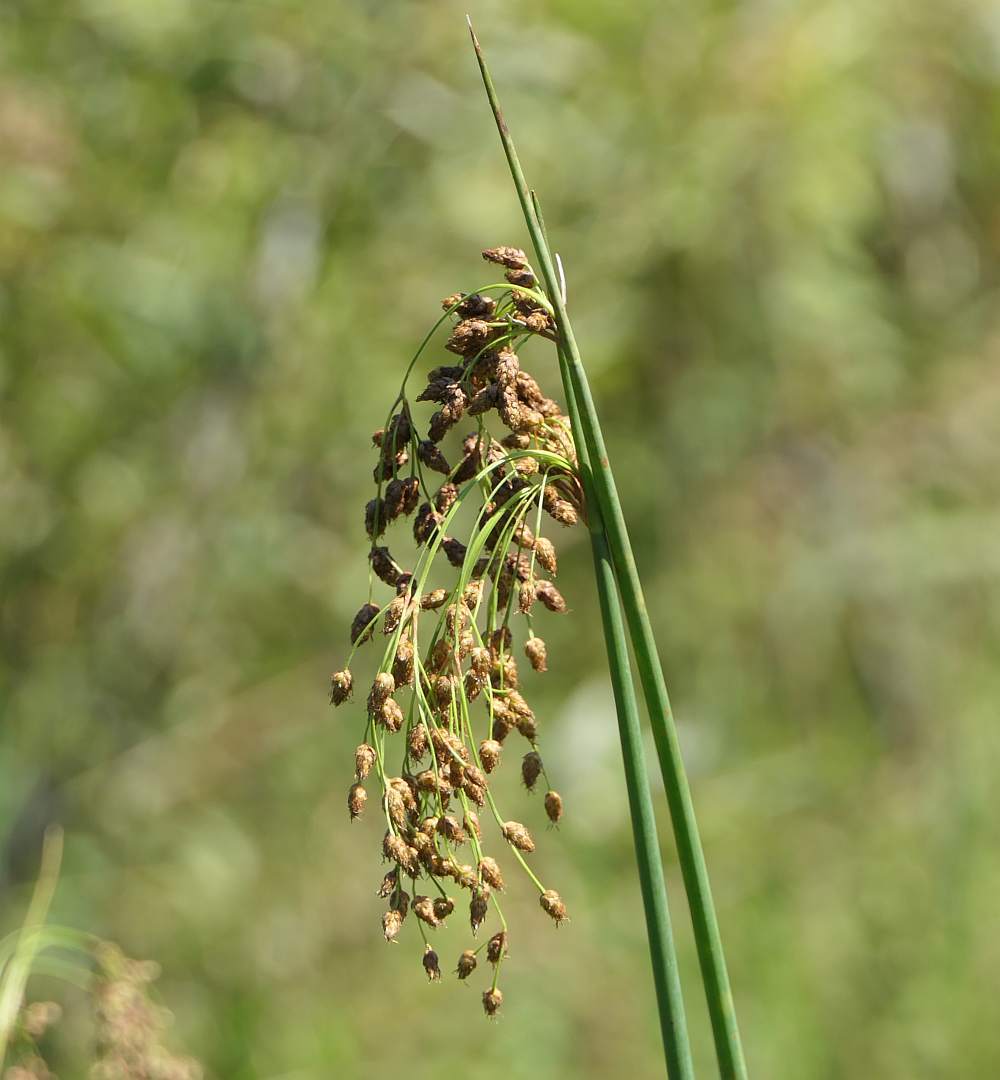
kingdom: Plantae
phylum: Tracheophyta
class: Liliopsida
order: Poales
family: Cyperaceae
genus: Schoenoplectus
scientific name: Schoenoplectus tabernaemontani
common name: Grey club-rush
